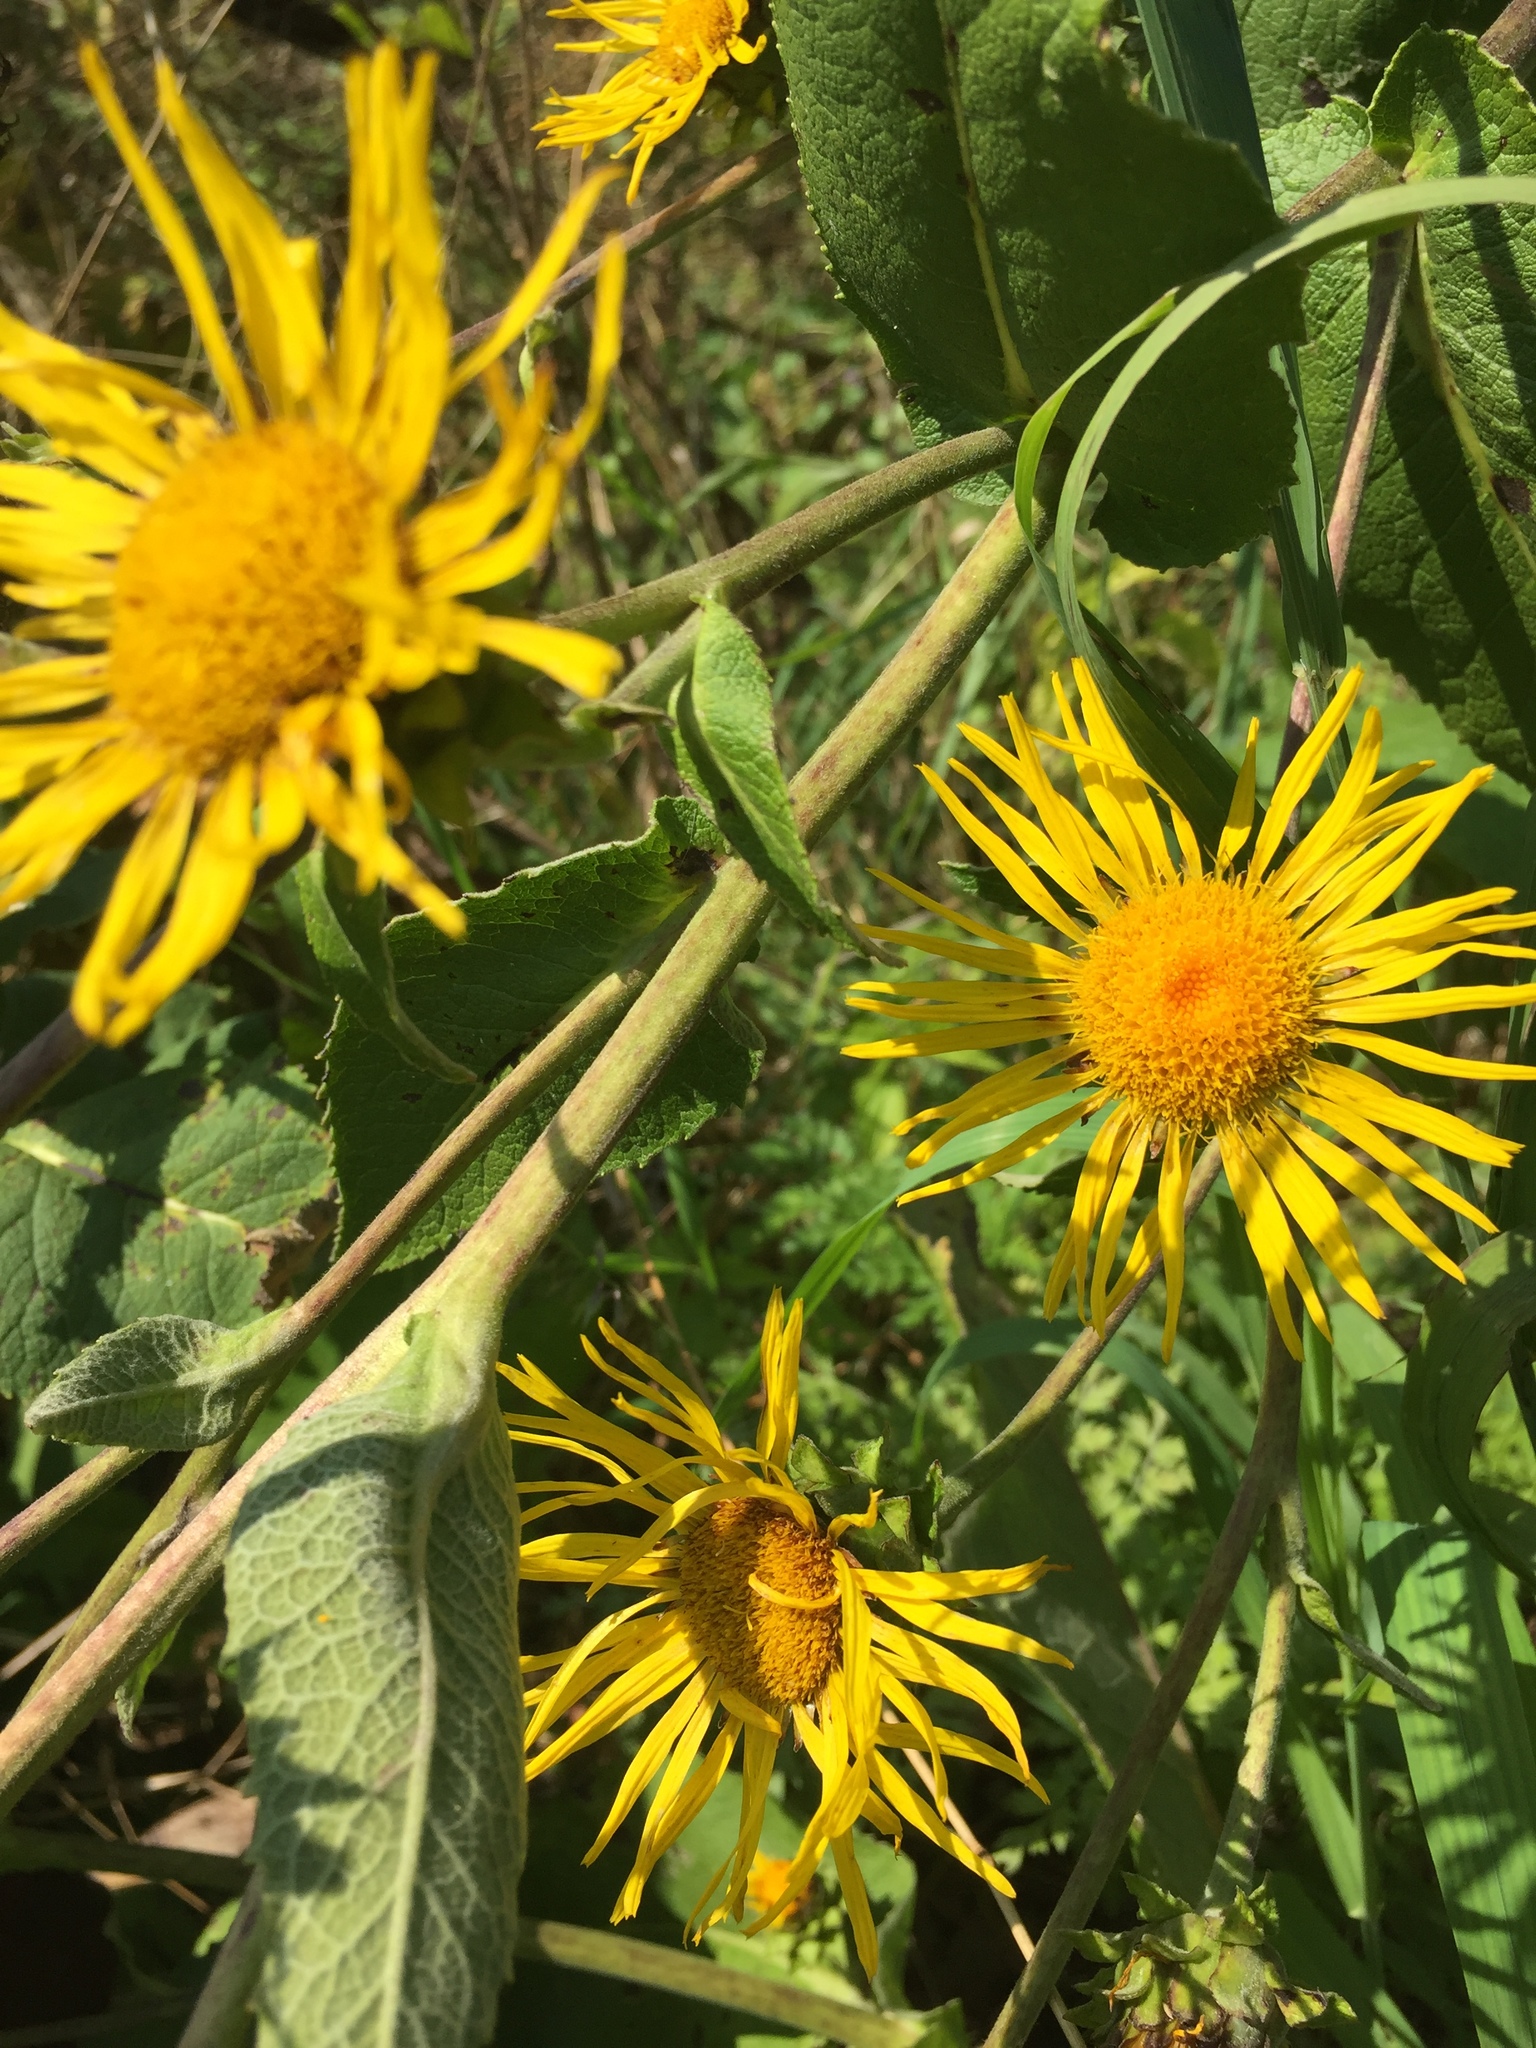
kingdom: Plantae
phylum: Tracheophyta
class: Magnoliopsida
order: Asterales
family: Asteraceae
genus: Inula
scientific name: Inula helenium
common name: Elecampane
